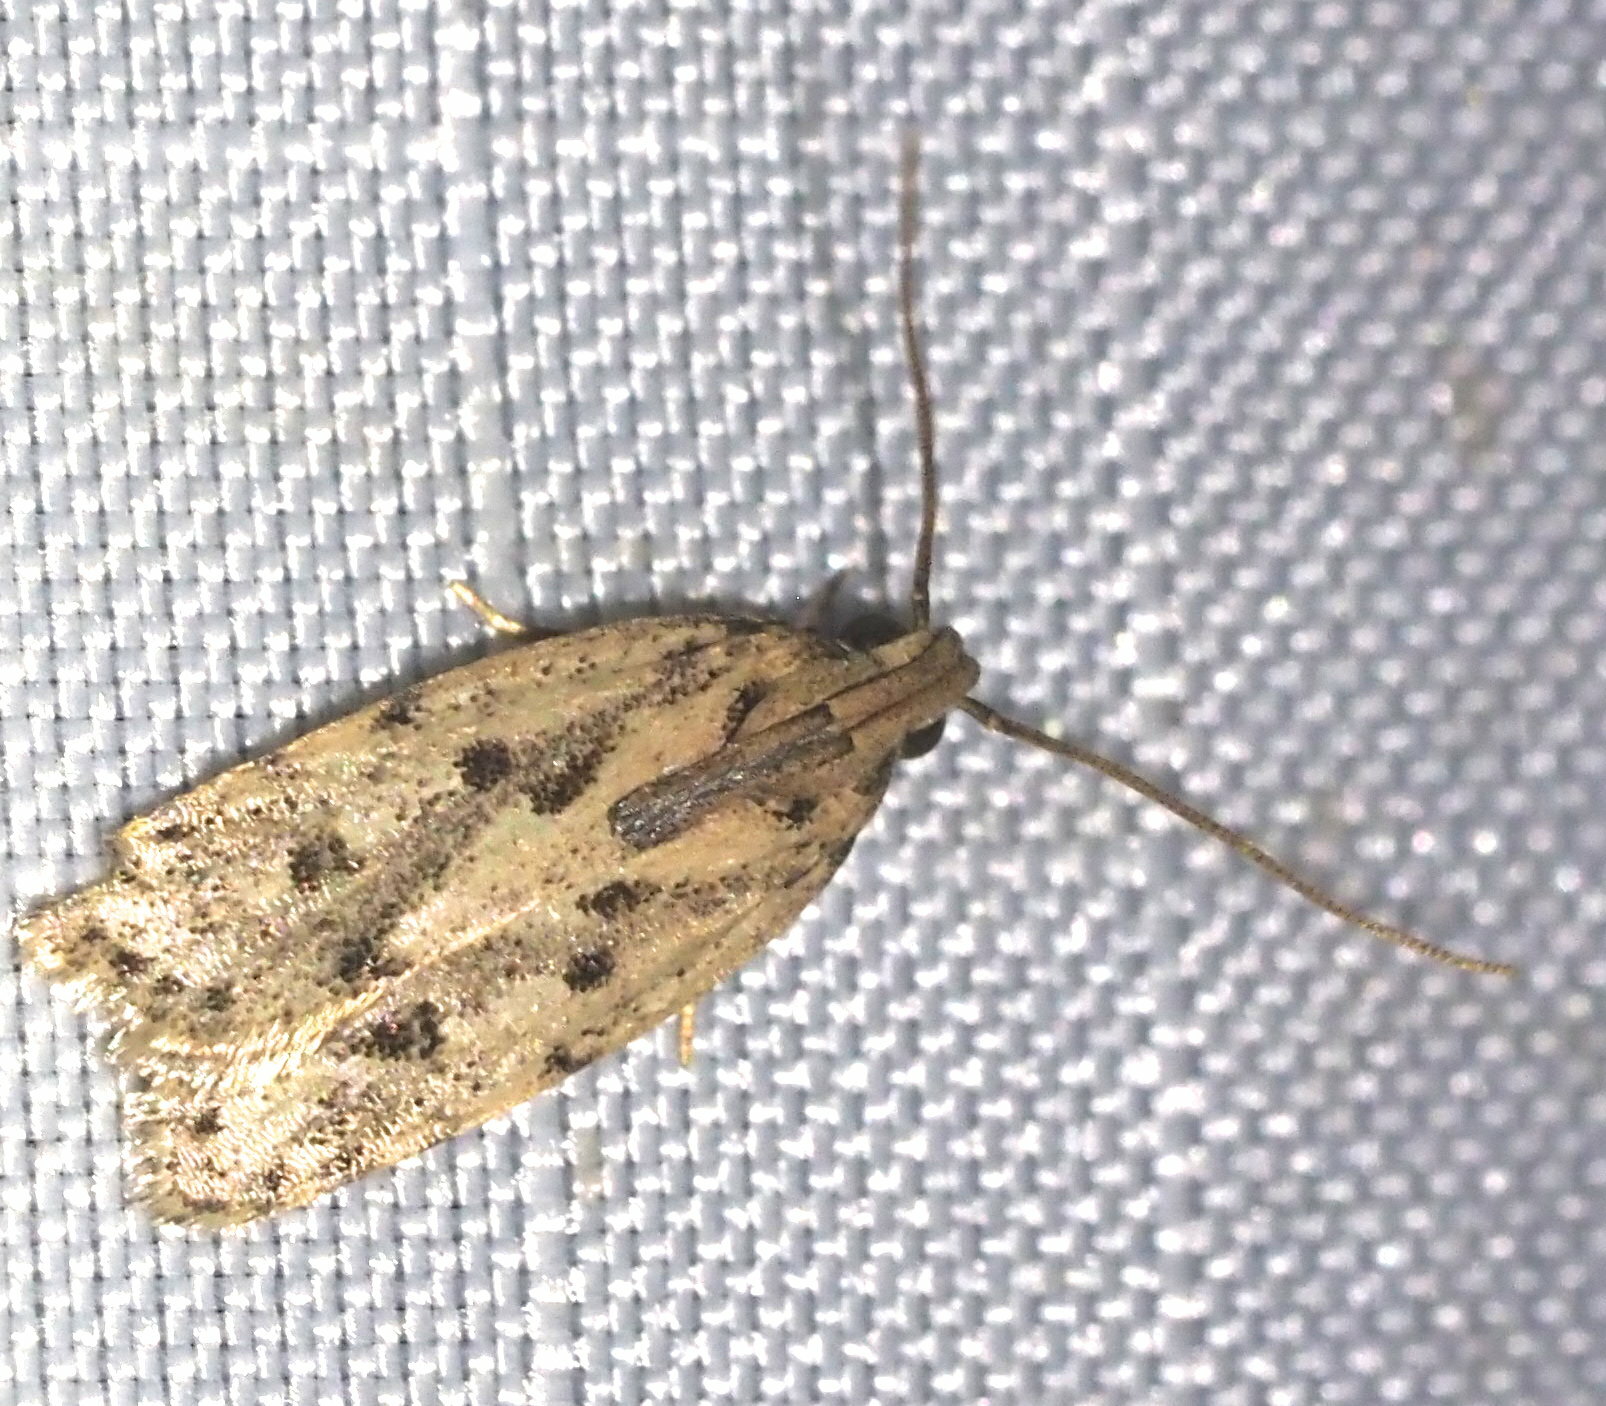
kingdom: Animalia
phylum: Arthropoda
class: Insecta
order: Lepidoptera
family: Autostichidae
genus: Stoeberhinus
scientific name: Stoeberhinus testaceus
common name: Moth
